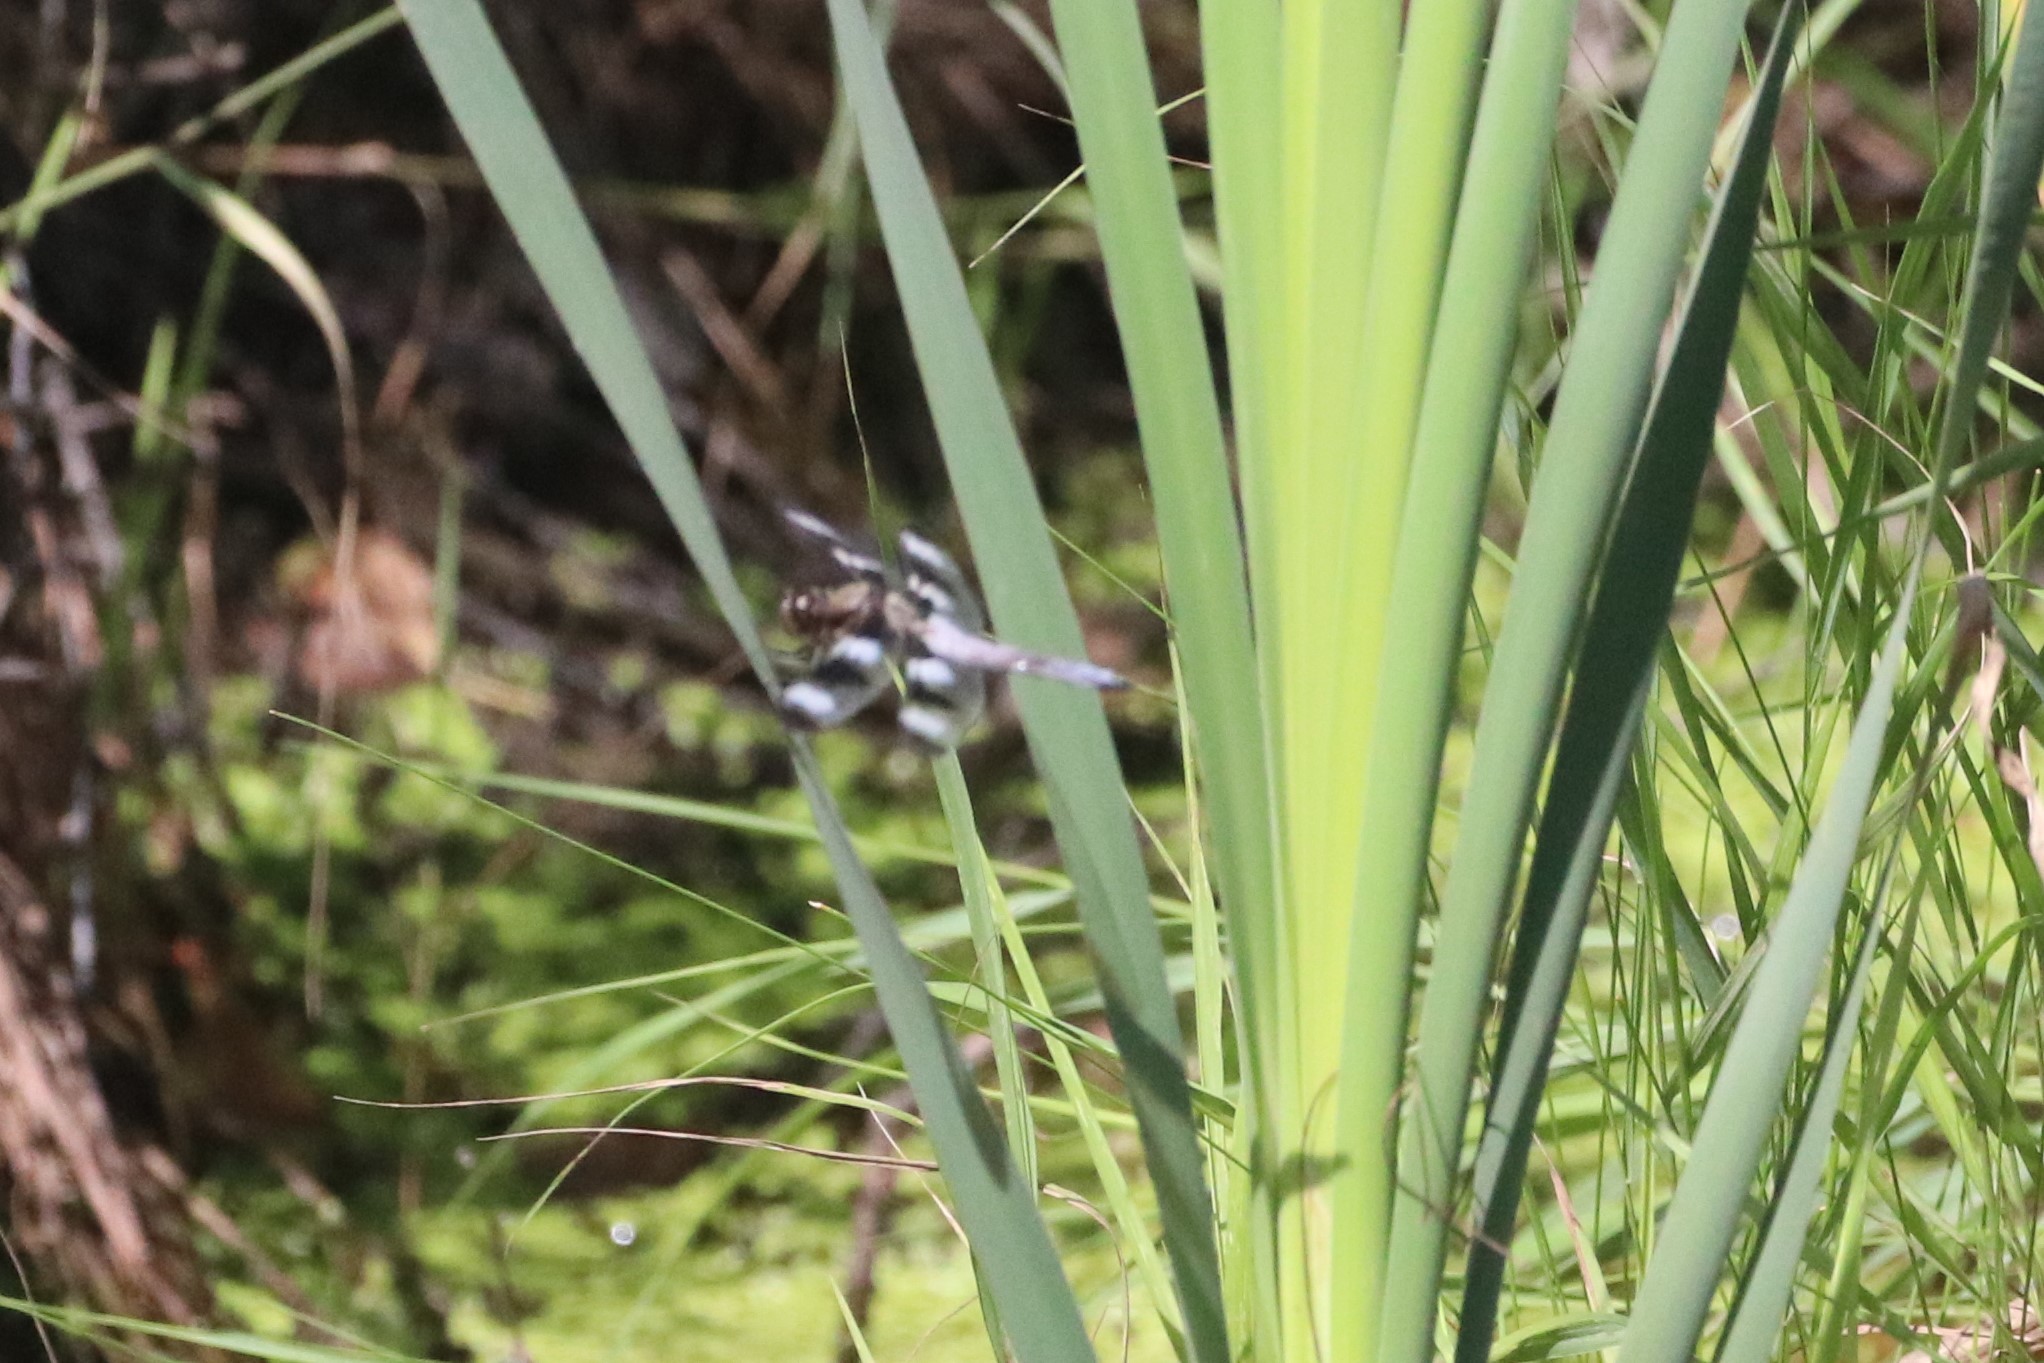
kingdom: Animalia
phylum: Arthropoda
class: Insecta
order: Odonata
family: Libellulidae
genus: Libellula
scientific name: Libellula pulchella
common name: Twelve-spotted skimmer
